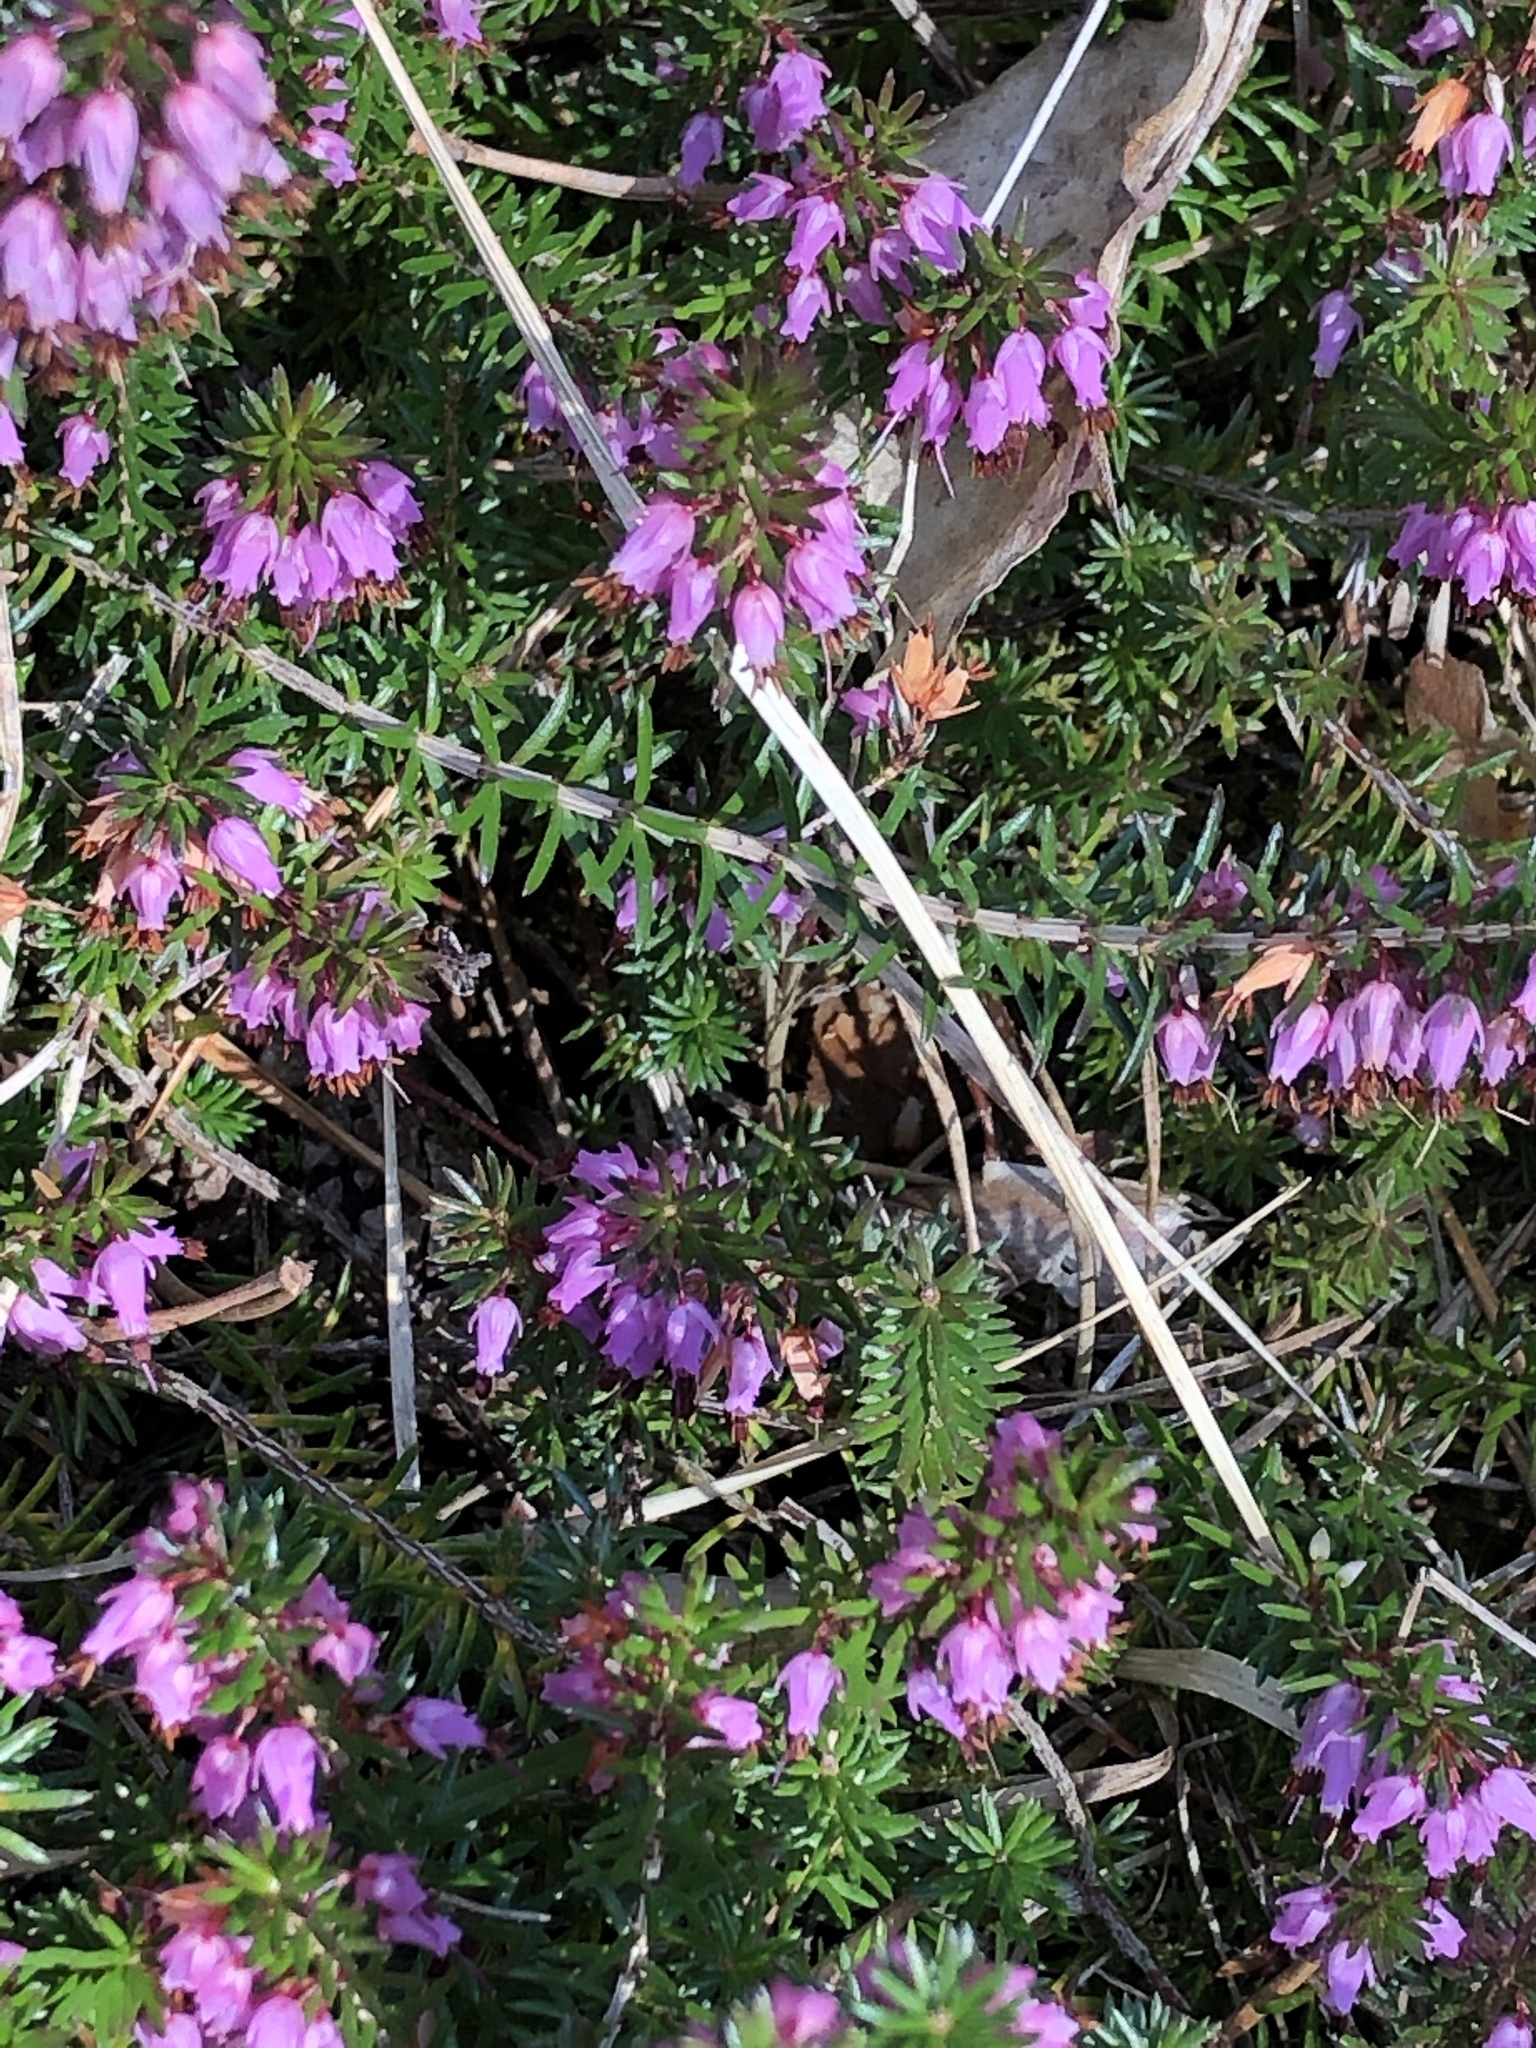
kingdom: Plantae
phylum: Tracheophyta
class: Magnoliopsida
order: Ericales
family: Ericaceae
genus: Erica
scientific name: Erica carnea
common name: Winter heath
